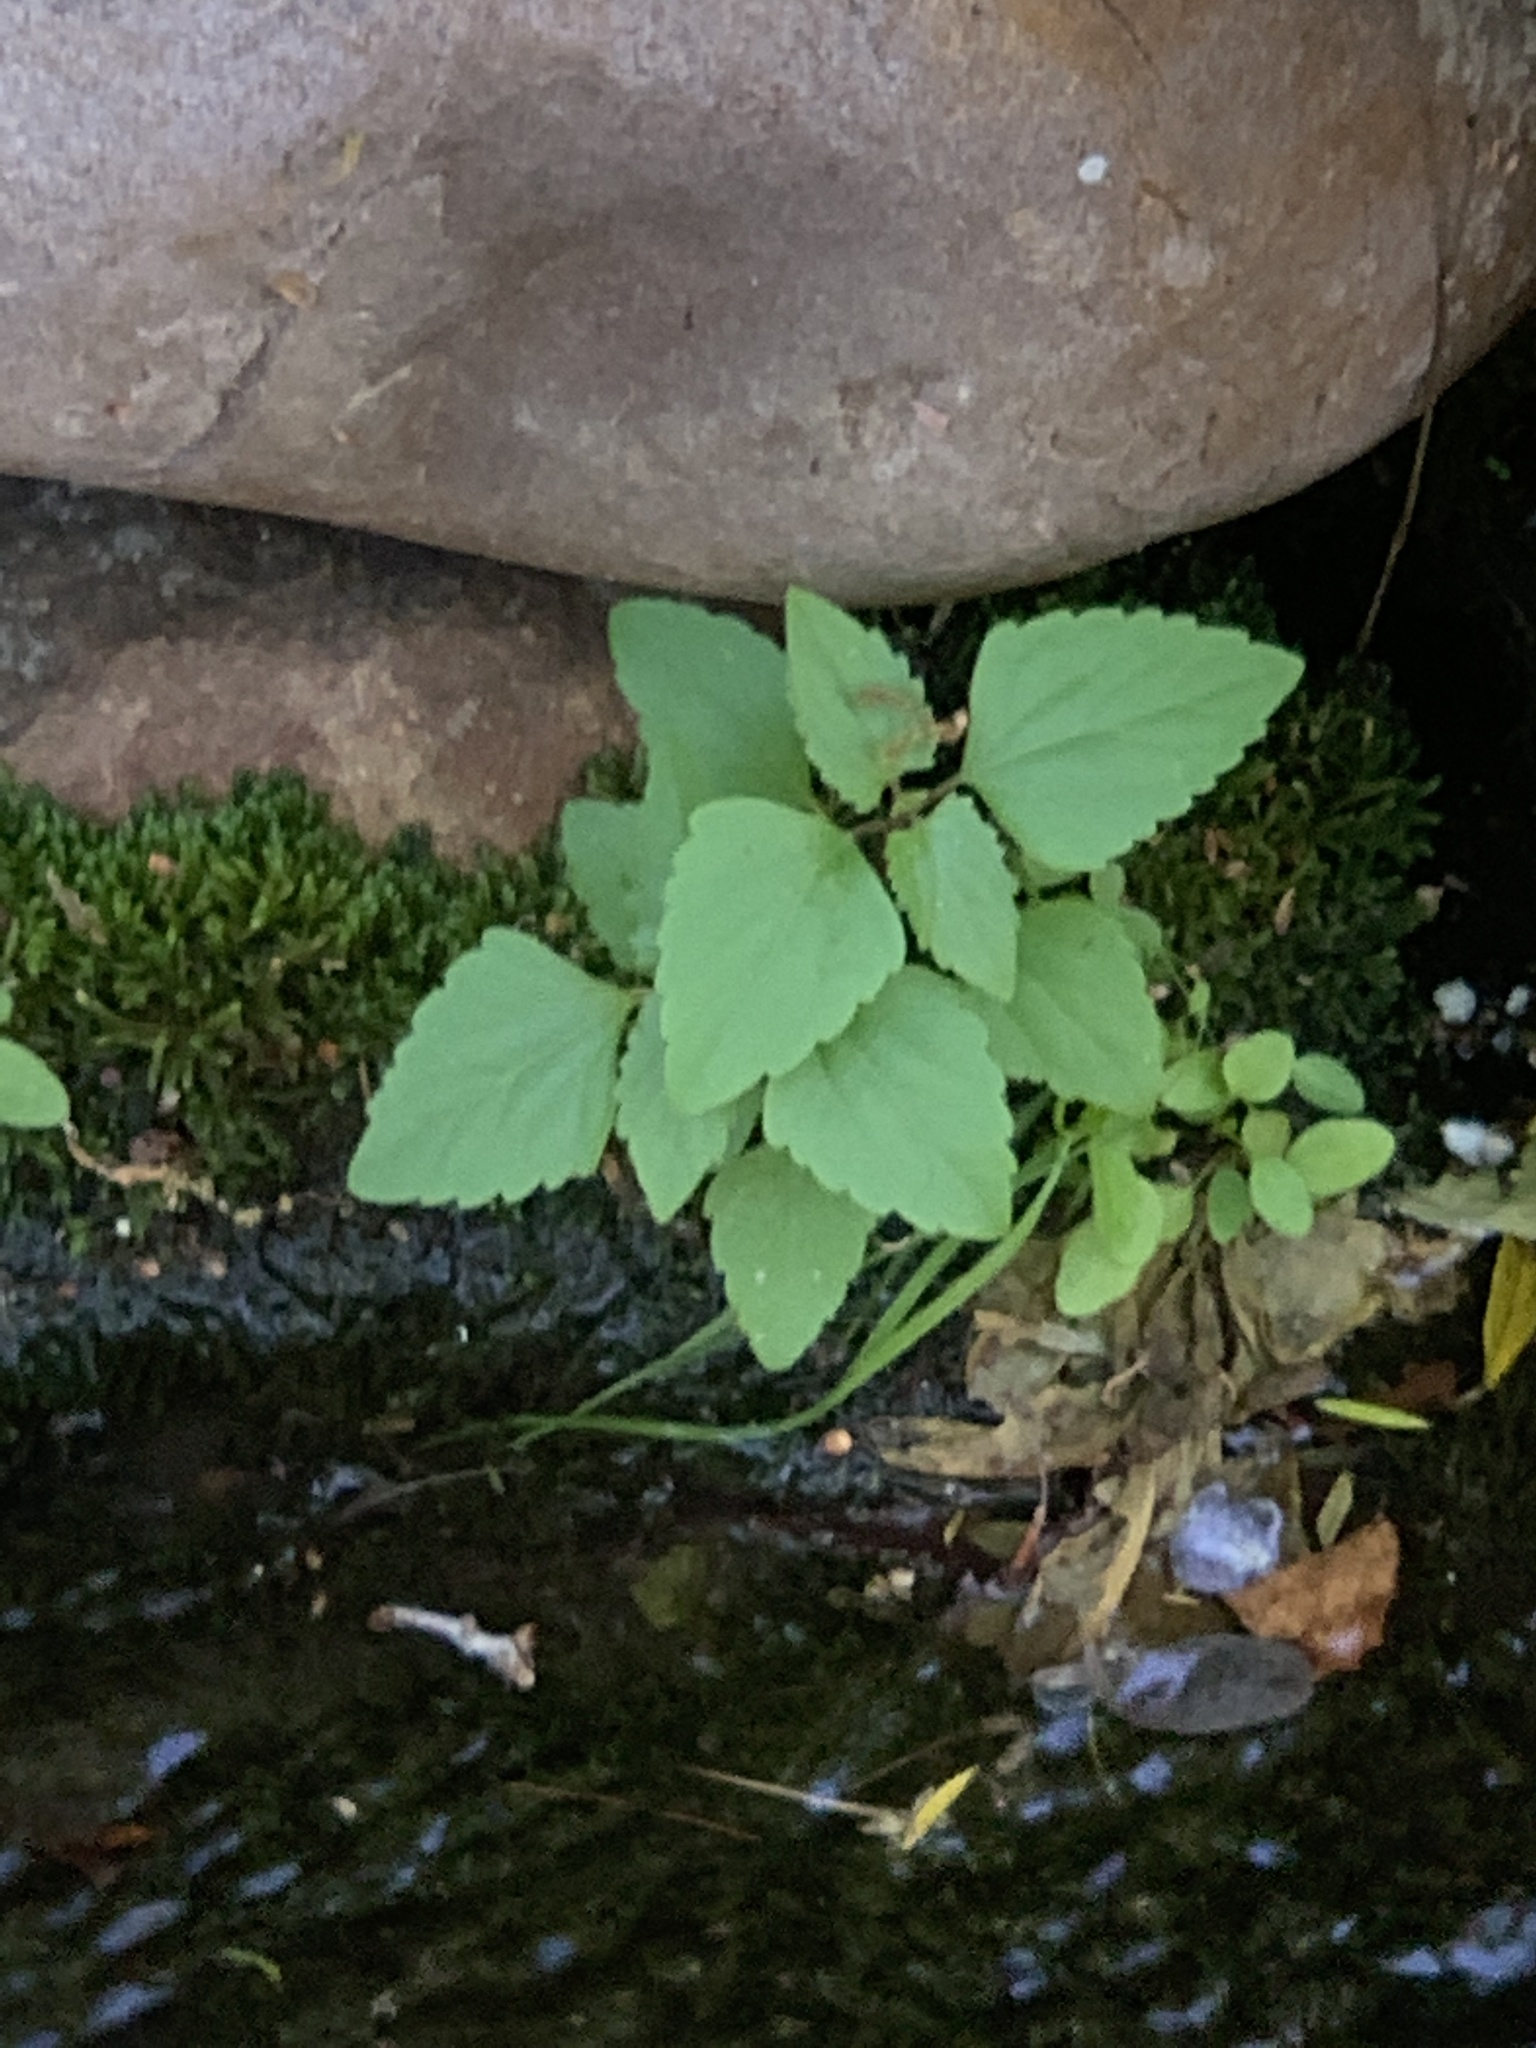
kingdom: Plantae
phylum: Tracheophyta
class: Magnoliopsida
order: Asterales
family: Asteraceae
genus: Ageratina
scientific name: Ageratina adenophora
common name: Sticky snakeroot
